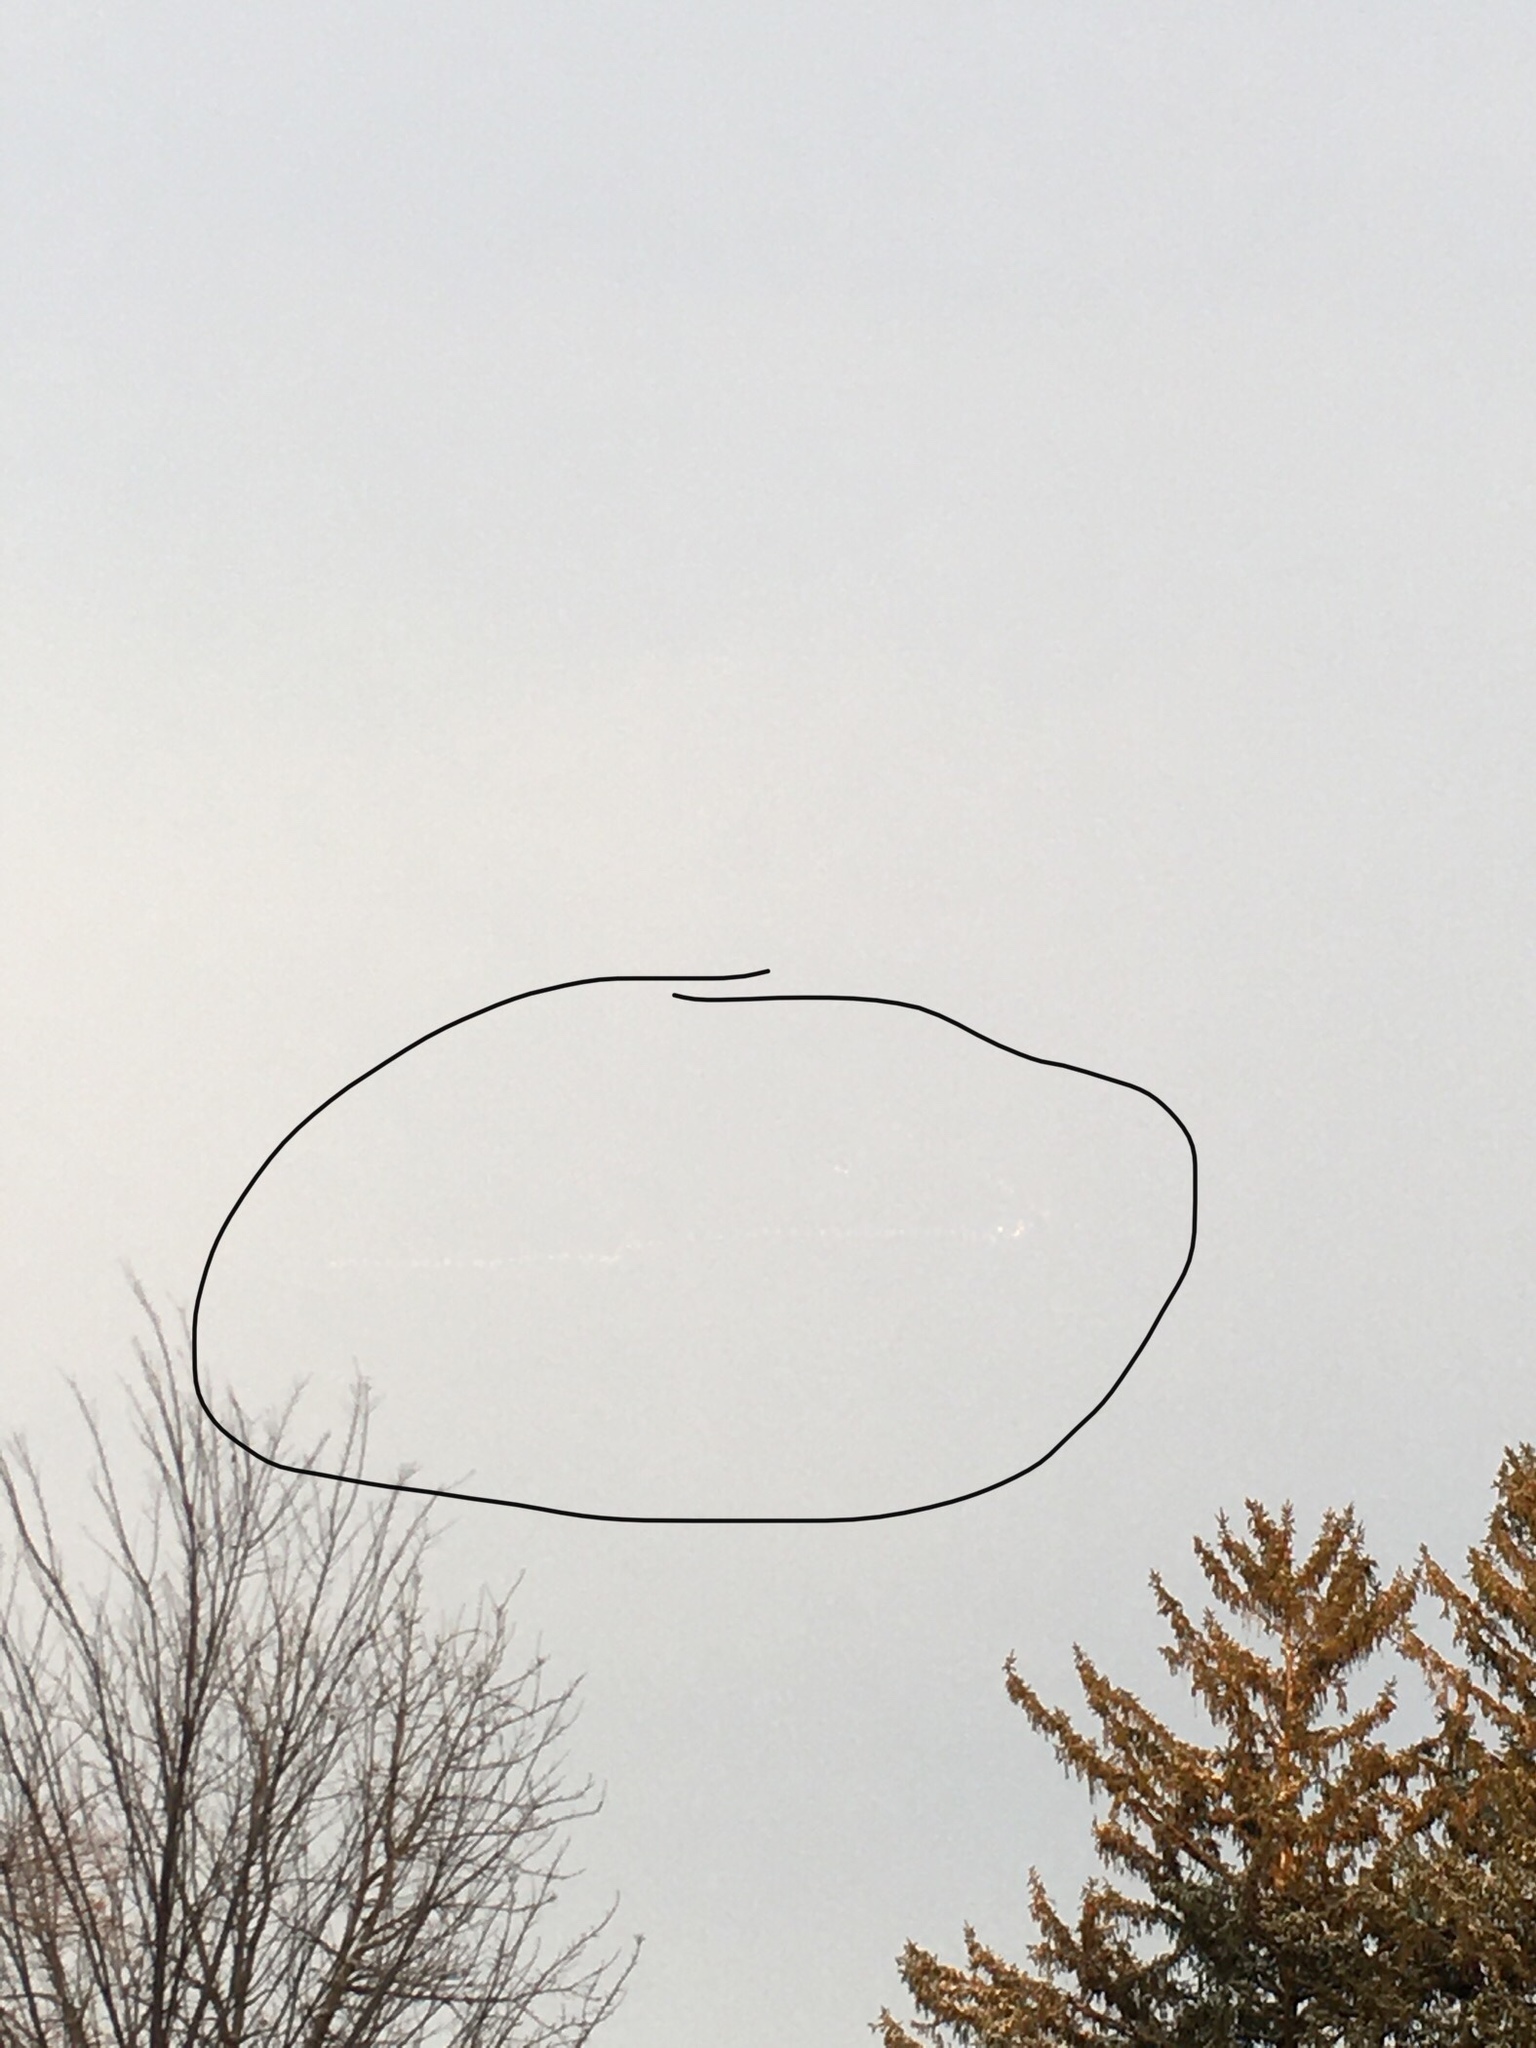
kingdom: Animalia
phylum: Chordata
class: Aves
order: Anseriformes
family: Anatidae
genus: Cygnus
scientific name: Cygnus columbianus
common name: Tundra swan
